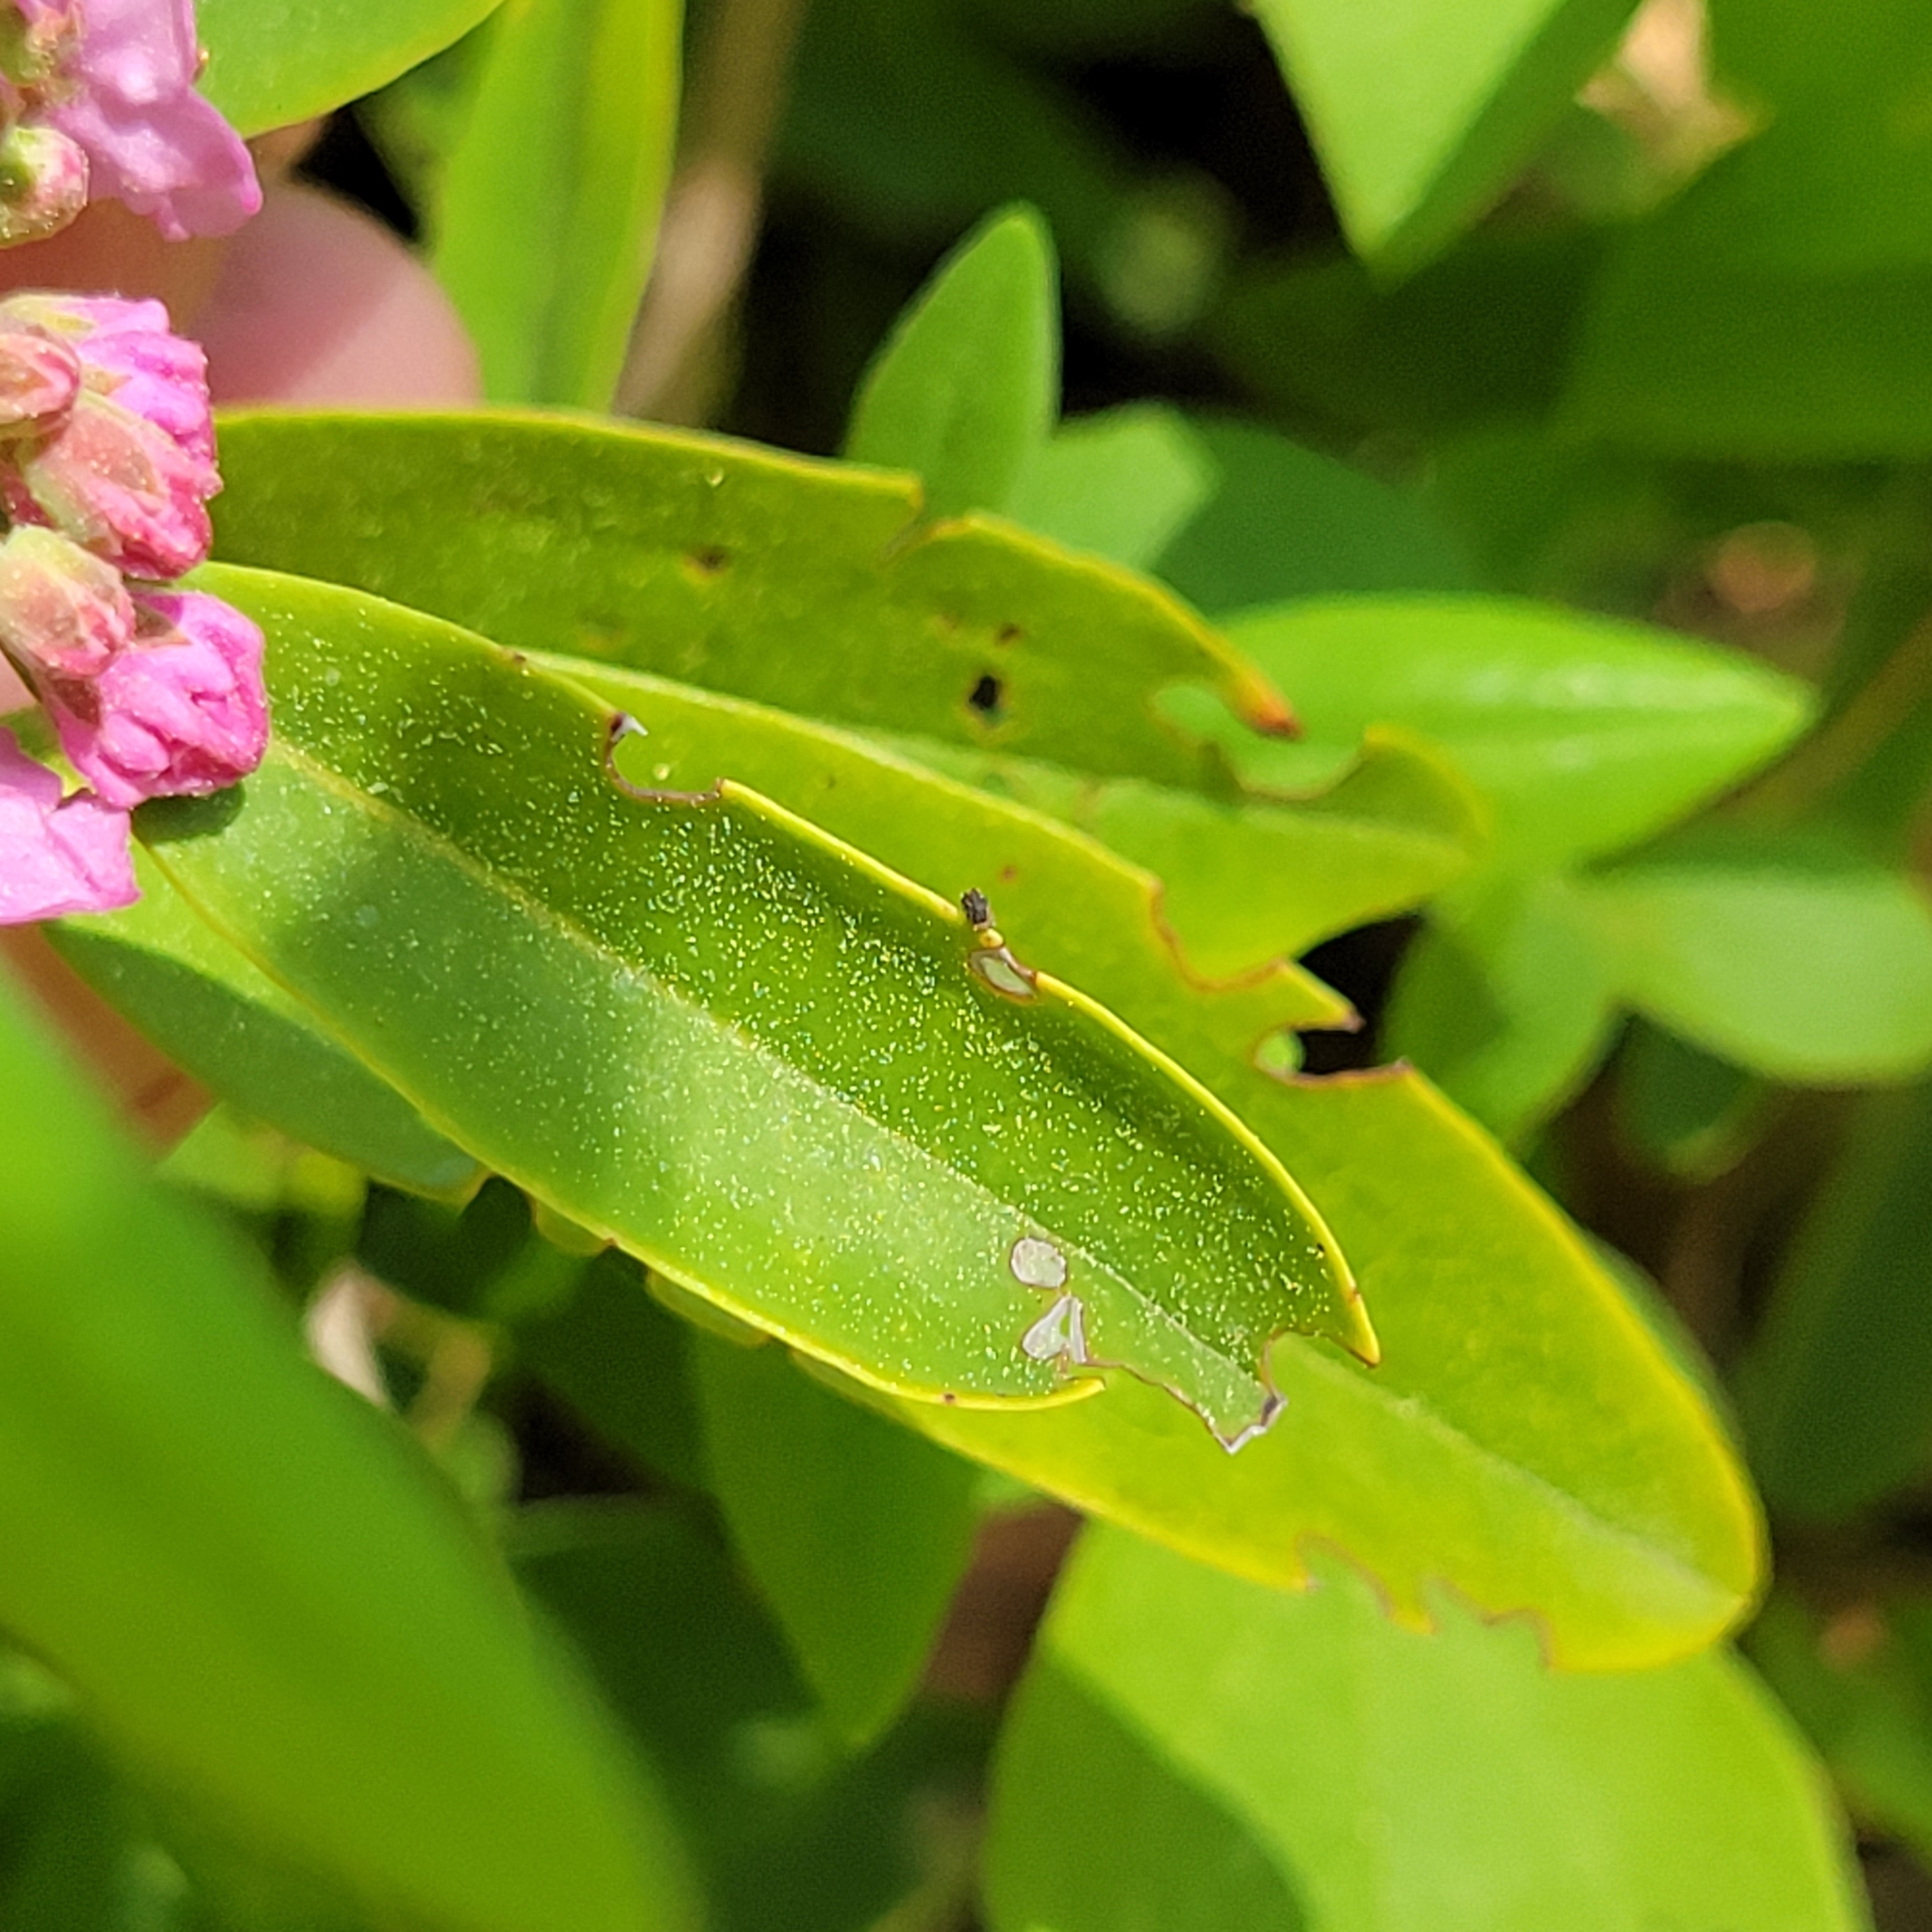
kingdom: Plantae
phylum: Tracheophyta
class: Magnoliopsida
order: Ericales
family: Ericaceae
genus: Kalmia
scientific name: Kalmia angustifolia
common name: Sheep-laurel
